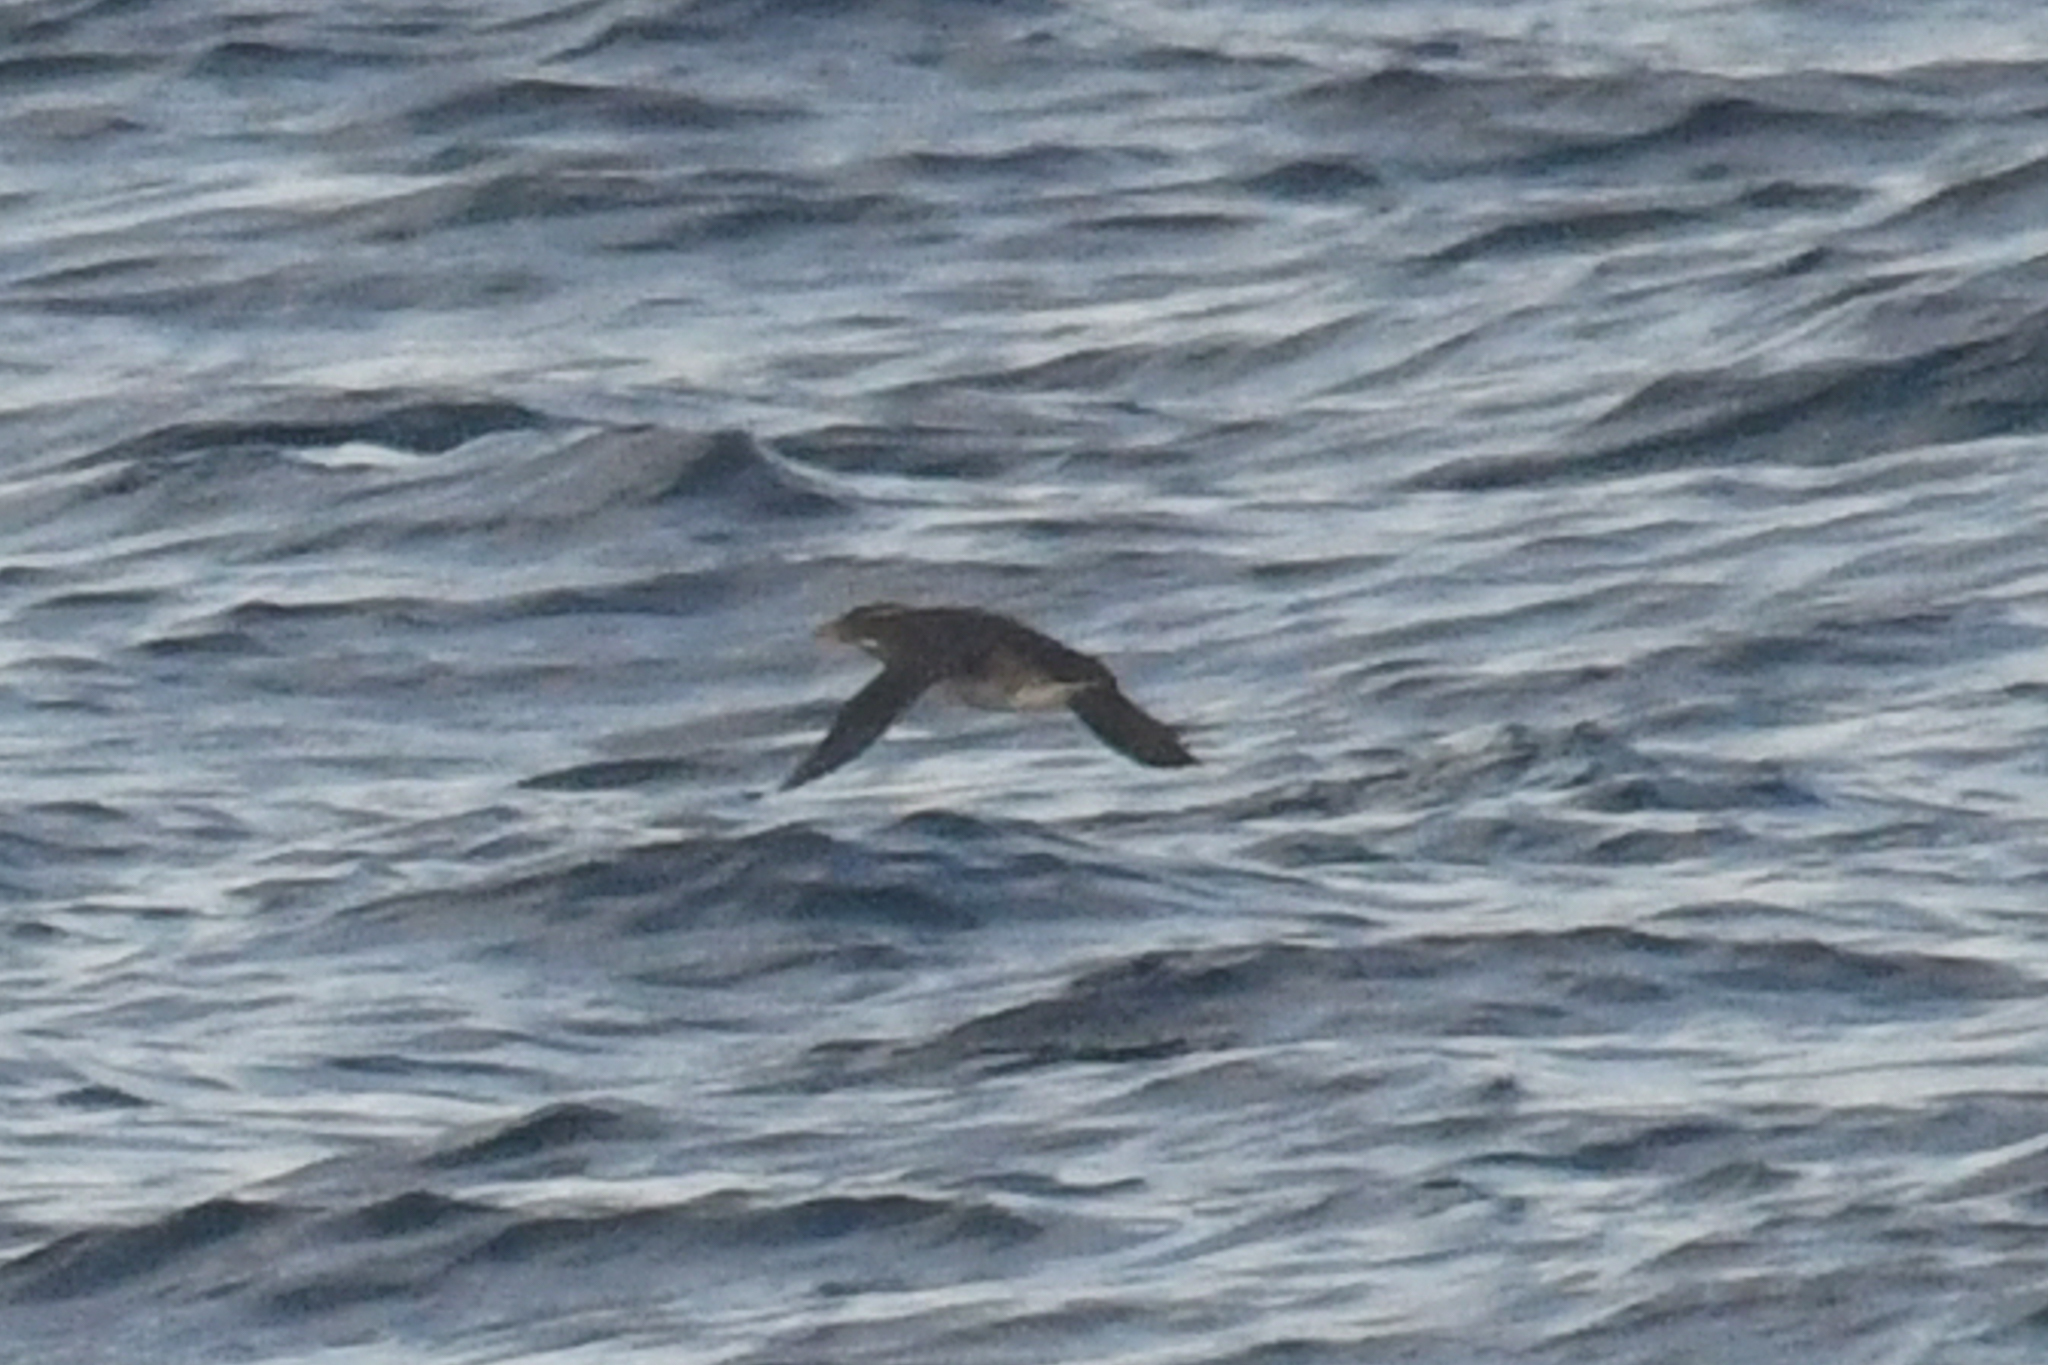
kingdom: Animalia
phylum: Chordata
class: Aves
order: Charadriiformes
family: Alcidae
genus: Cerorhinca
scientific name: Cerorhinca monocerata
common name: Rhinoceros auklet
